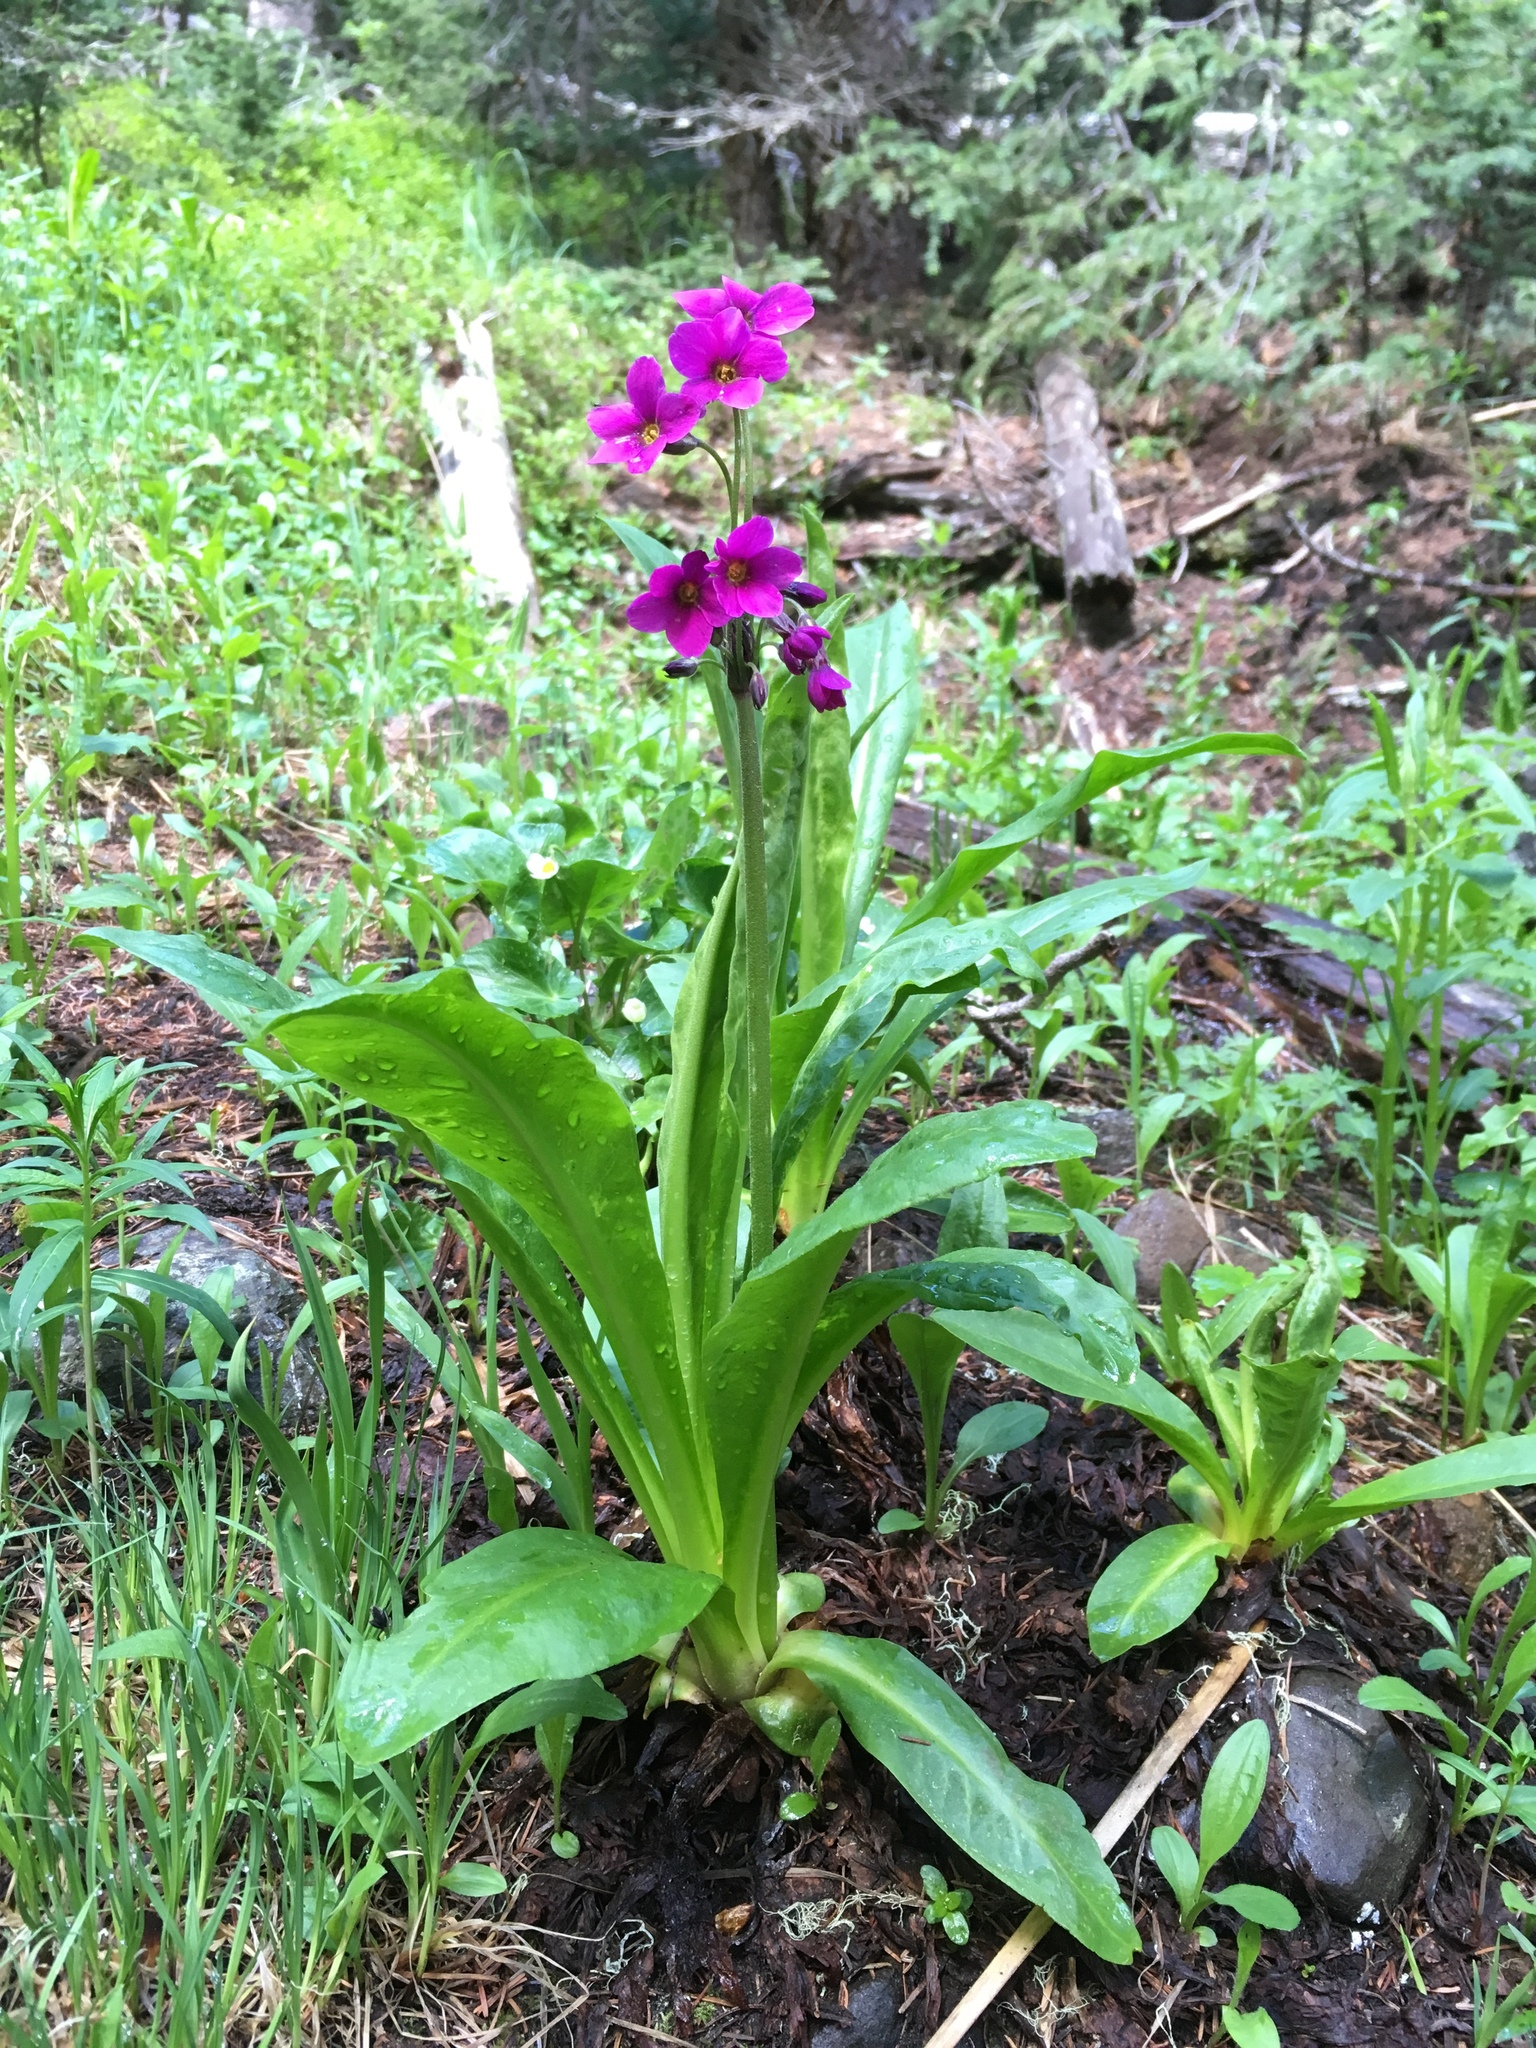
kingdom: Plantae
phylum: Tracheophyta
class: Magnoliopsida
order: Ericales
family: Primulaceae
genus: Primula
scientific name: Primula parryi
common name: Parry's primrose
